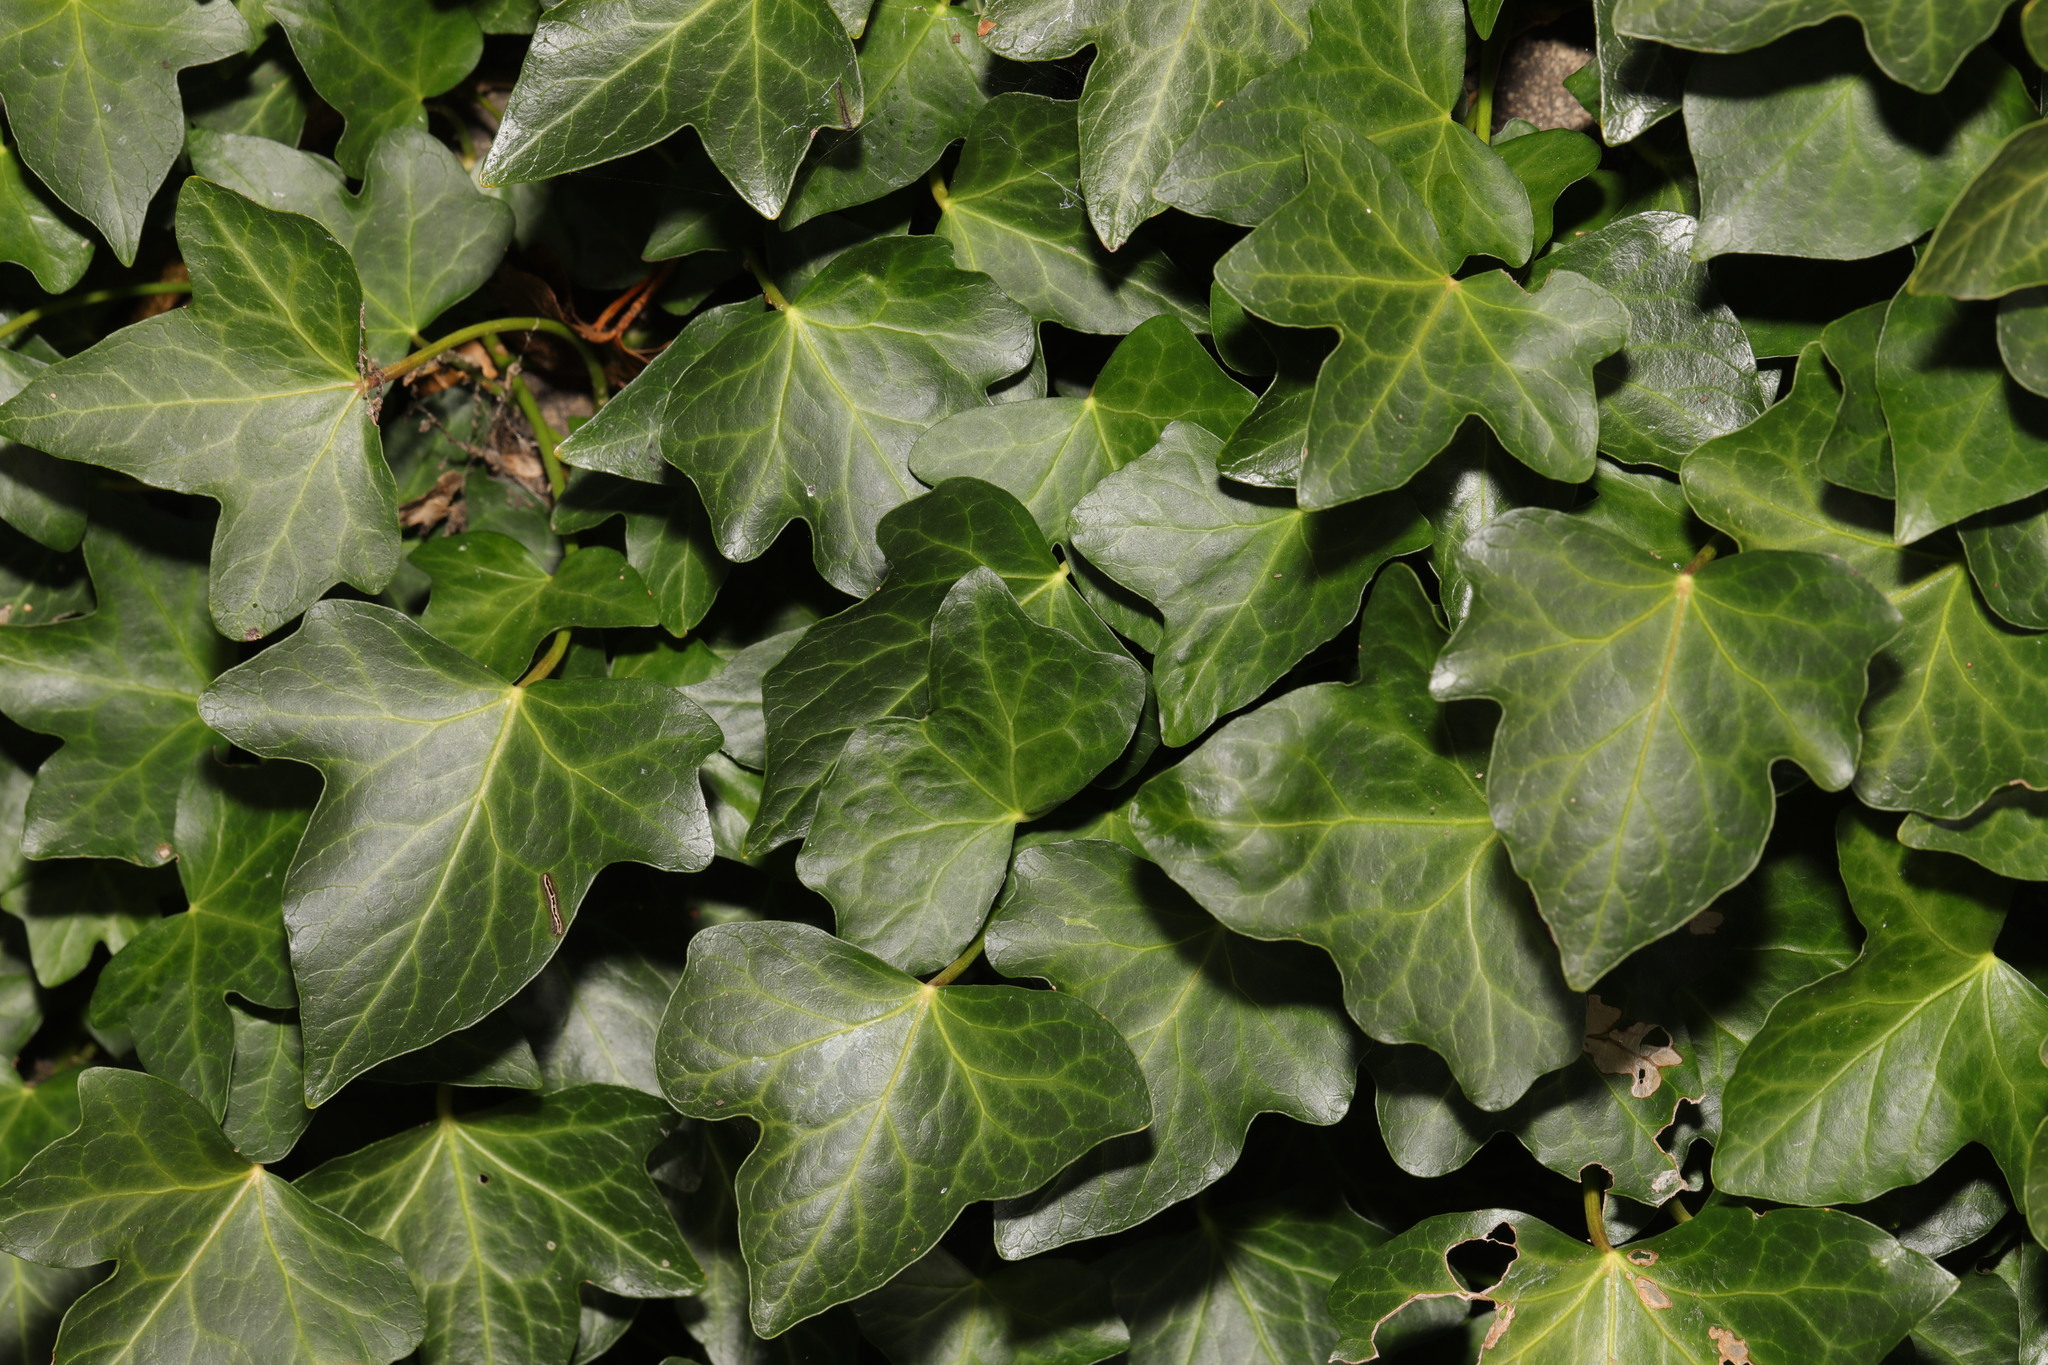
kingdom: Plantae
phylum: Tracheophyta
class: Magnoliopsida
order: Apiales
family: Araliaceae
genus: Hedera
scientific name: Hedera helix
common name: Ivy
